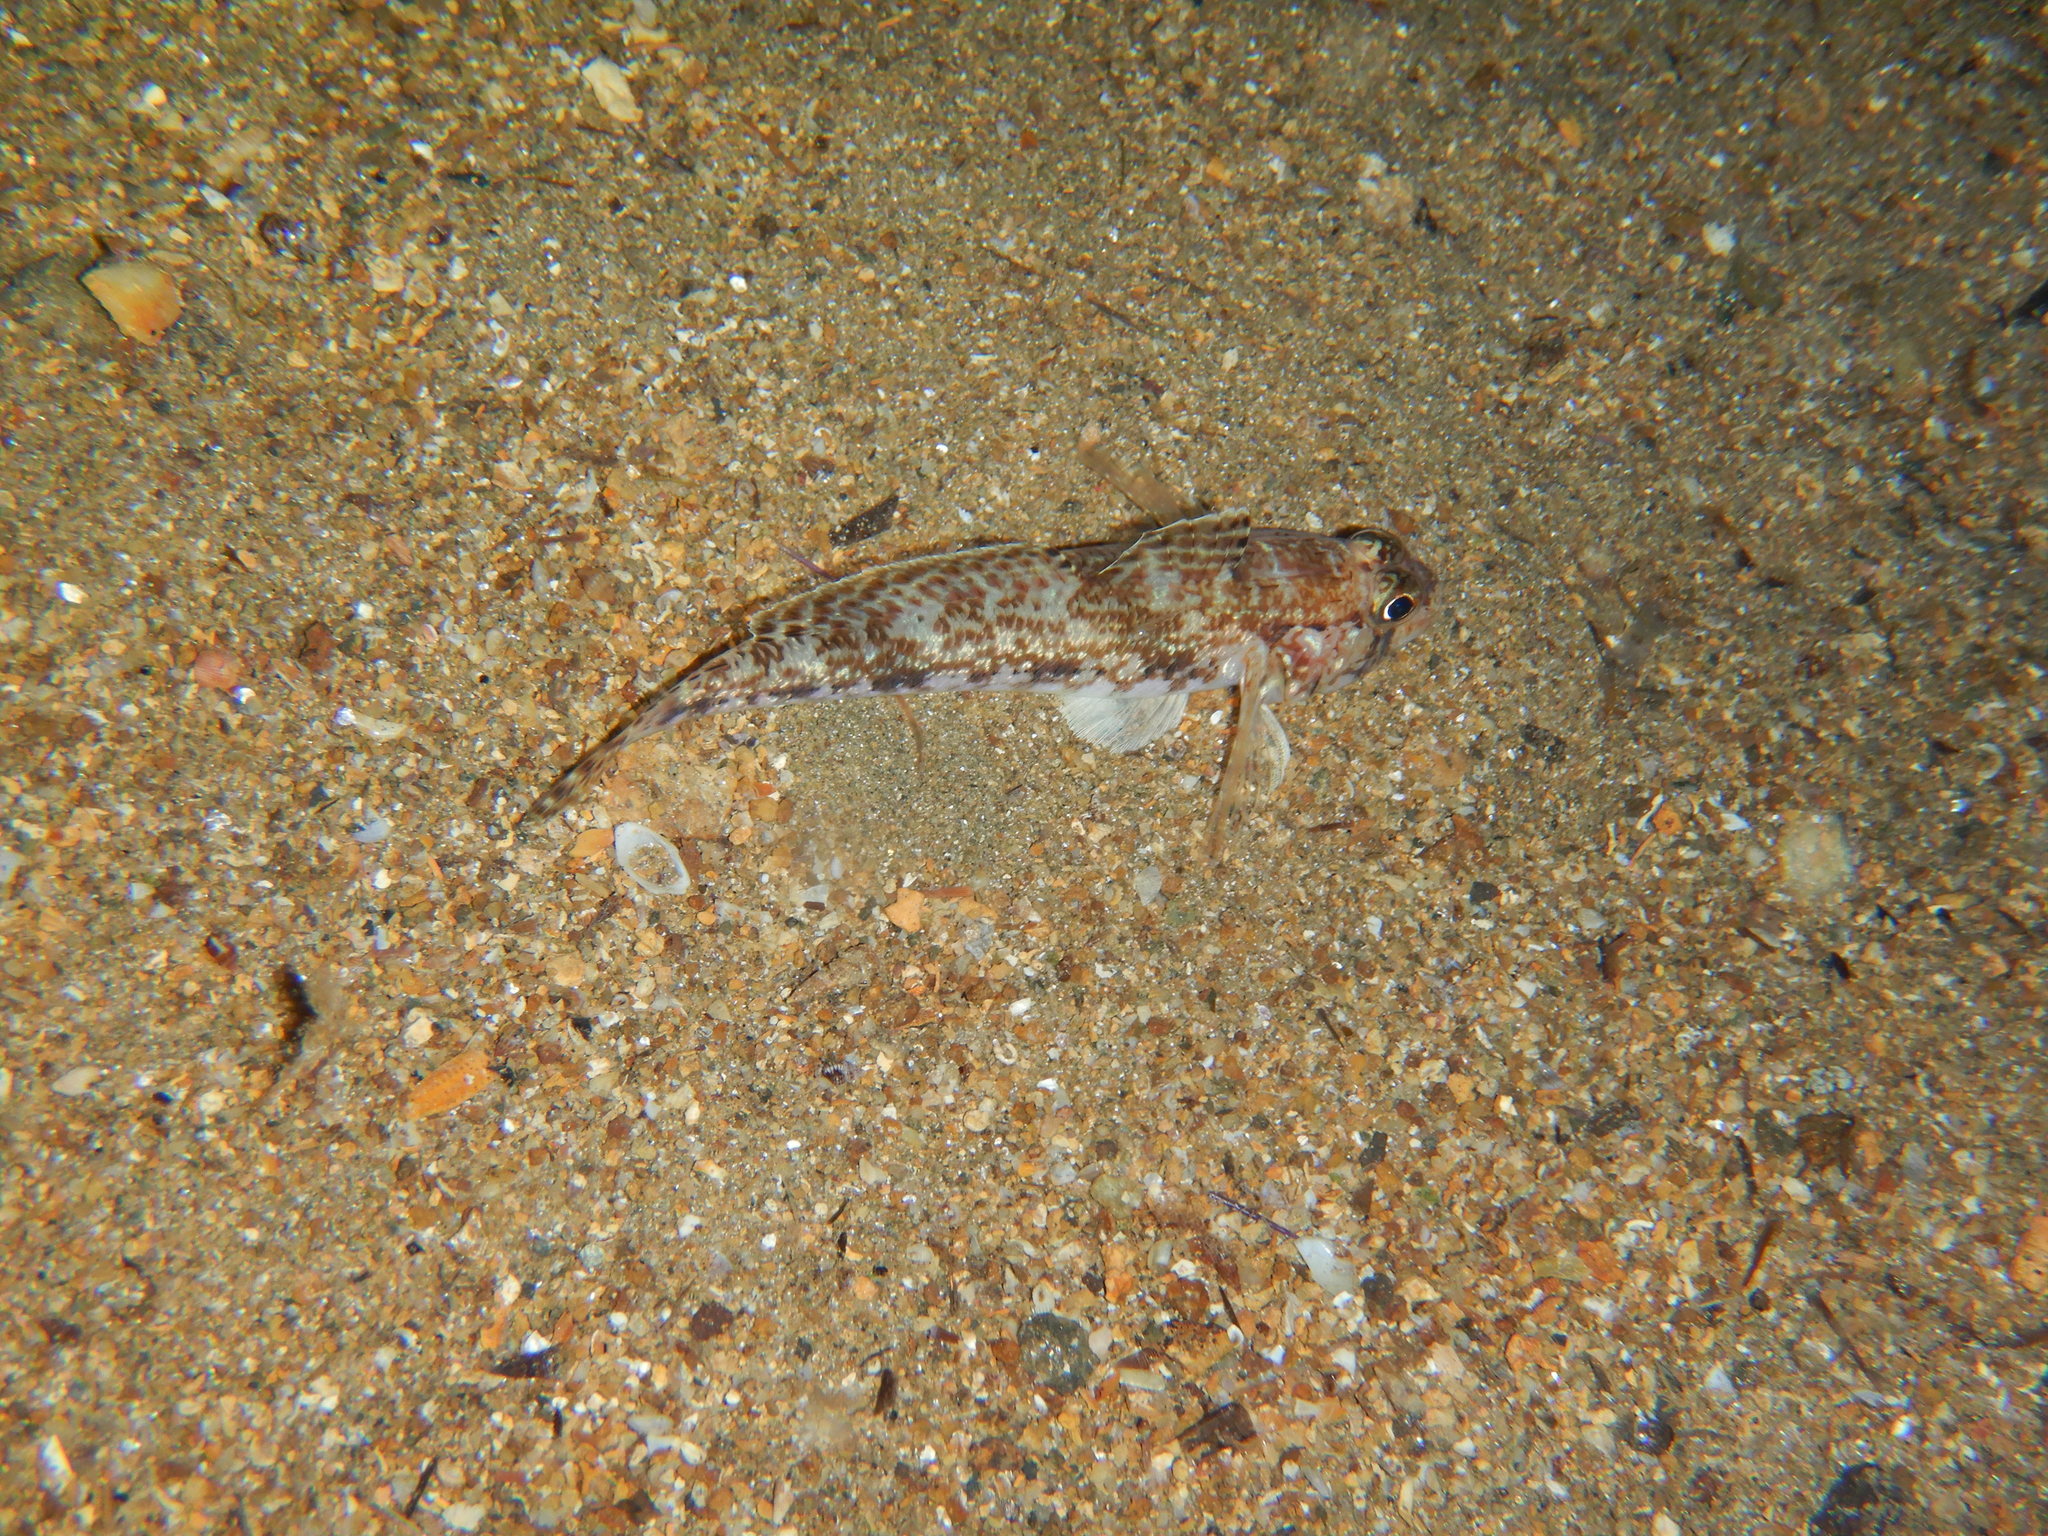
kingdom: Animalia
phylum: Chordata
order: Perciformes
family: Gobiidae
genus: Gobius
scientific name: Gobius geniporus
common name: Slender goby
